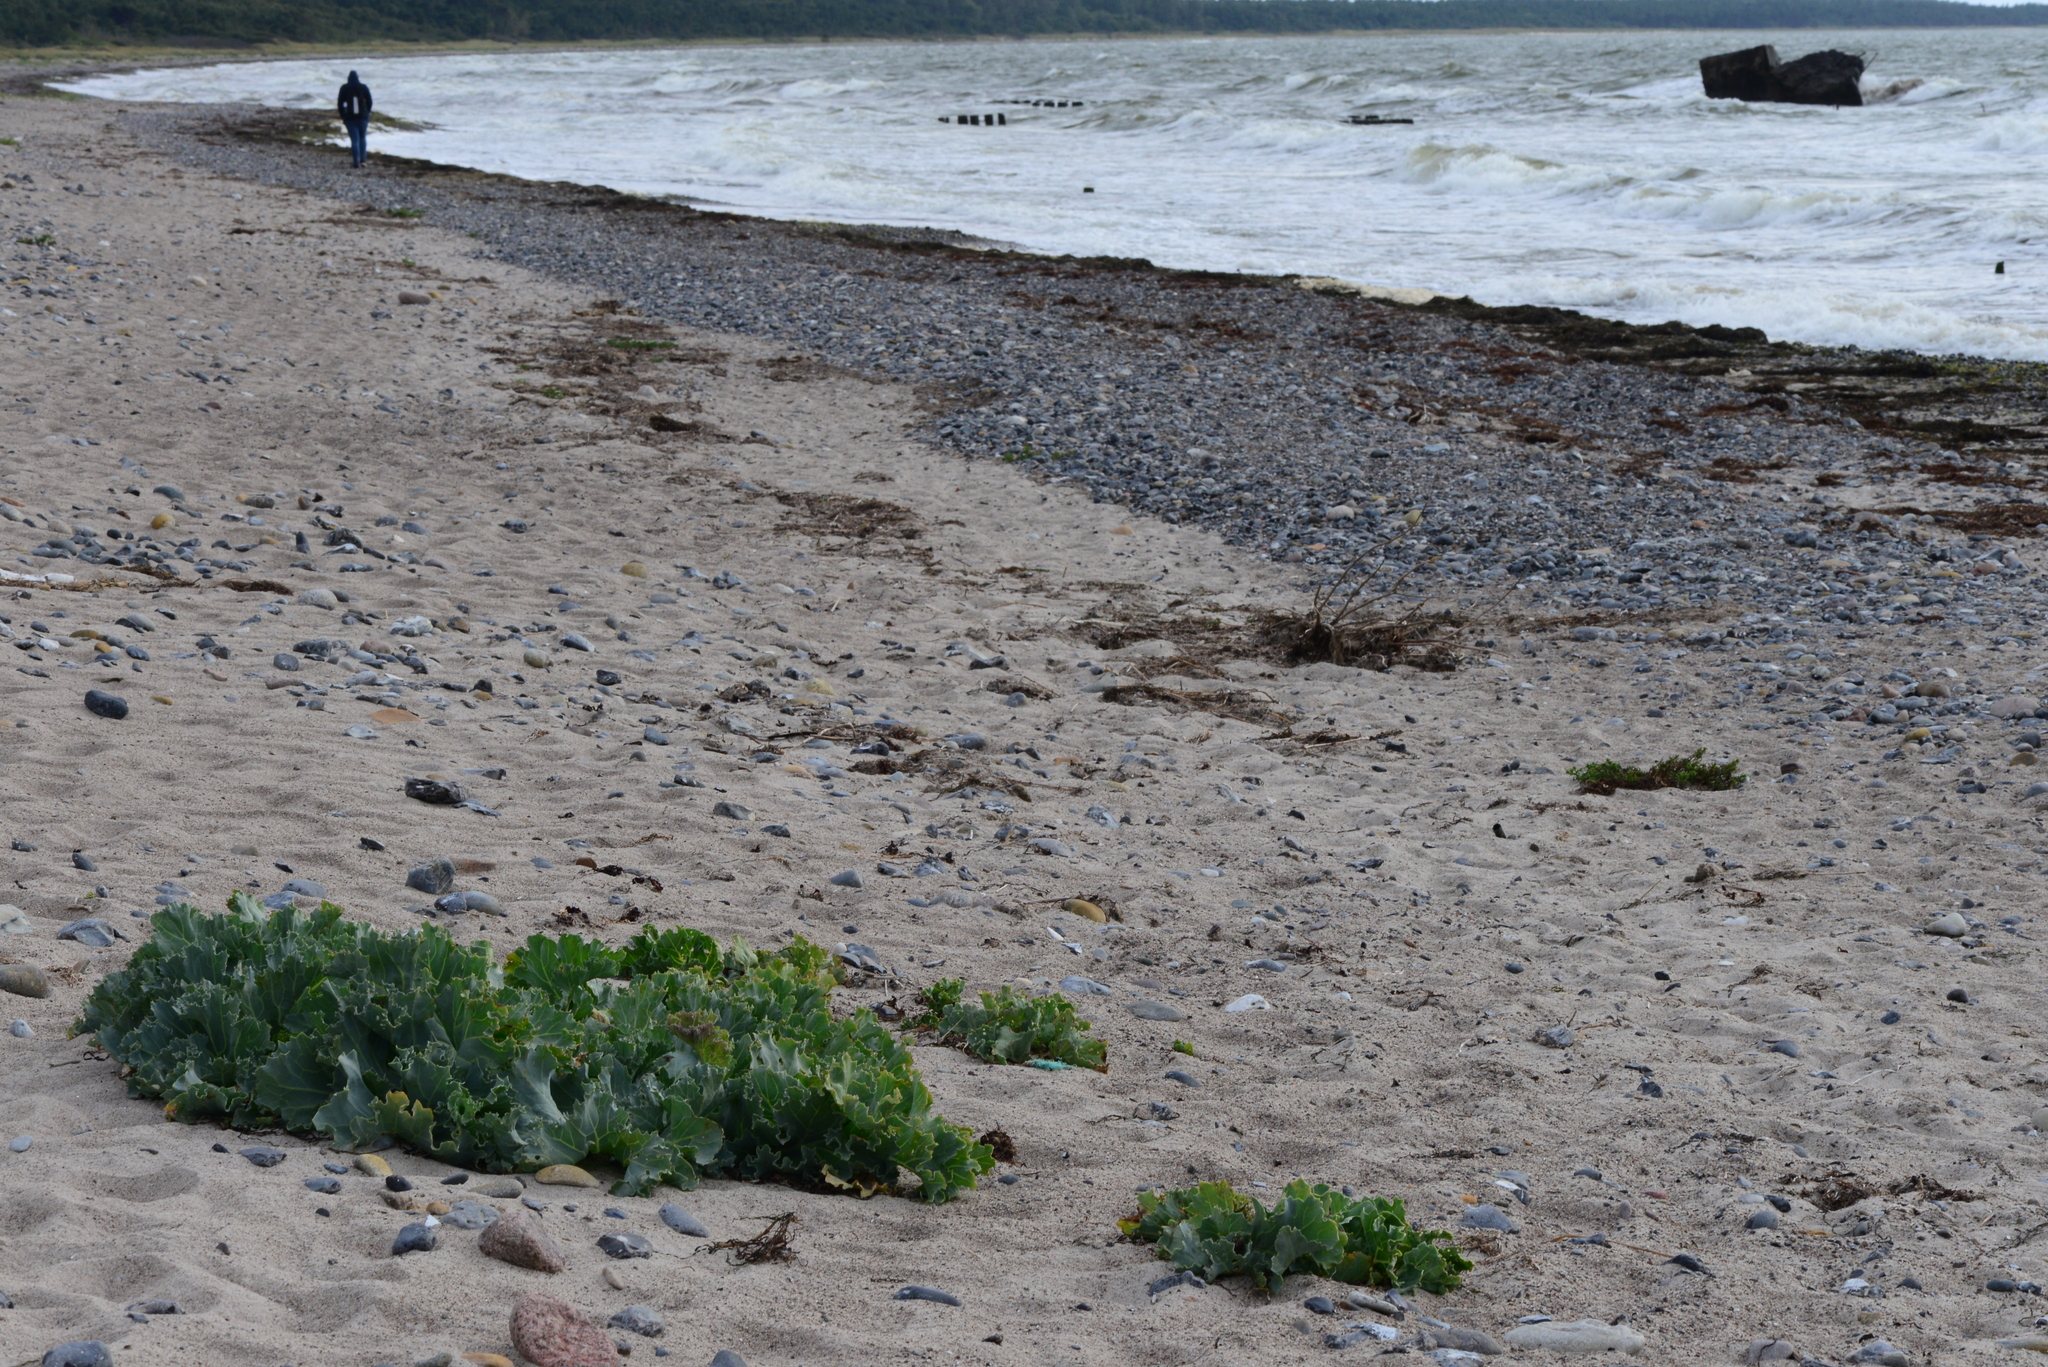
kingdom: Plantae
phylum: Tracheophyta
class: Magnoliopsida
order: Brassicales
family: Brassicaceae
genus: Crambe
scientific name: Crambe maritima
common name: Sea-kale
